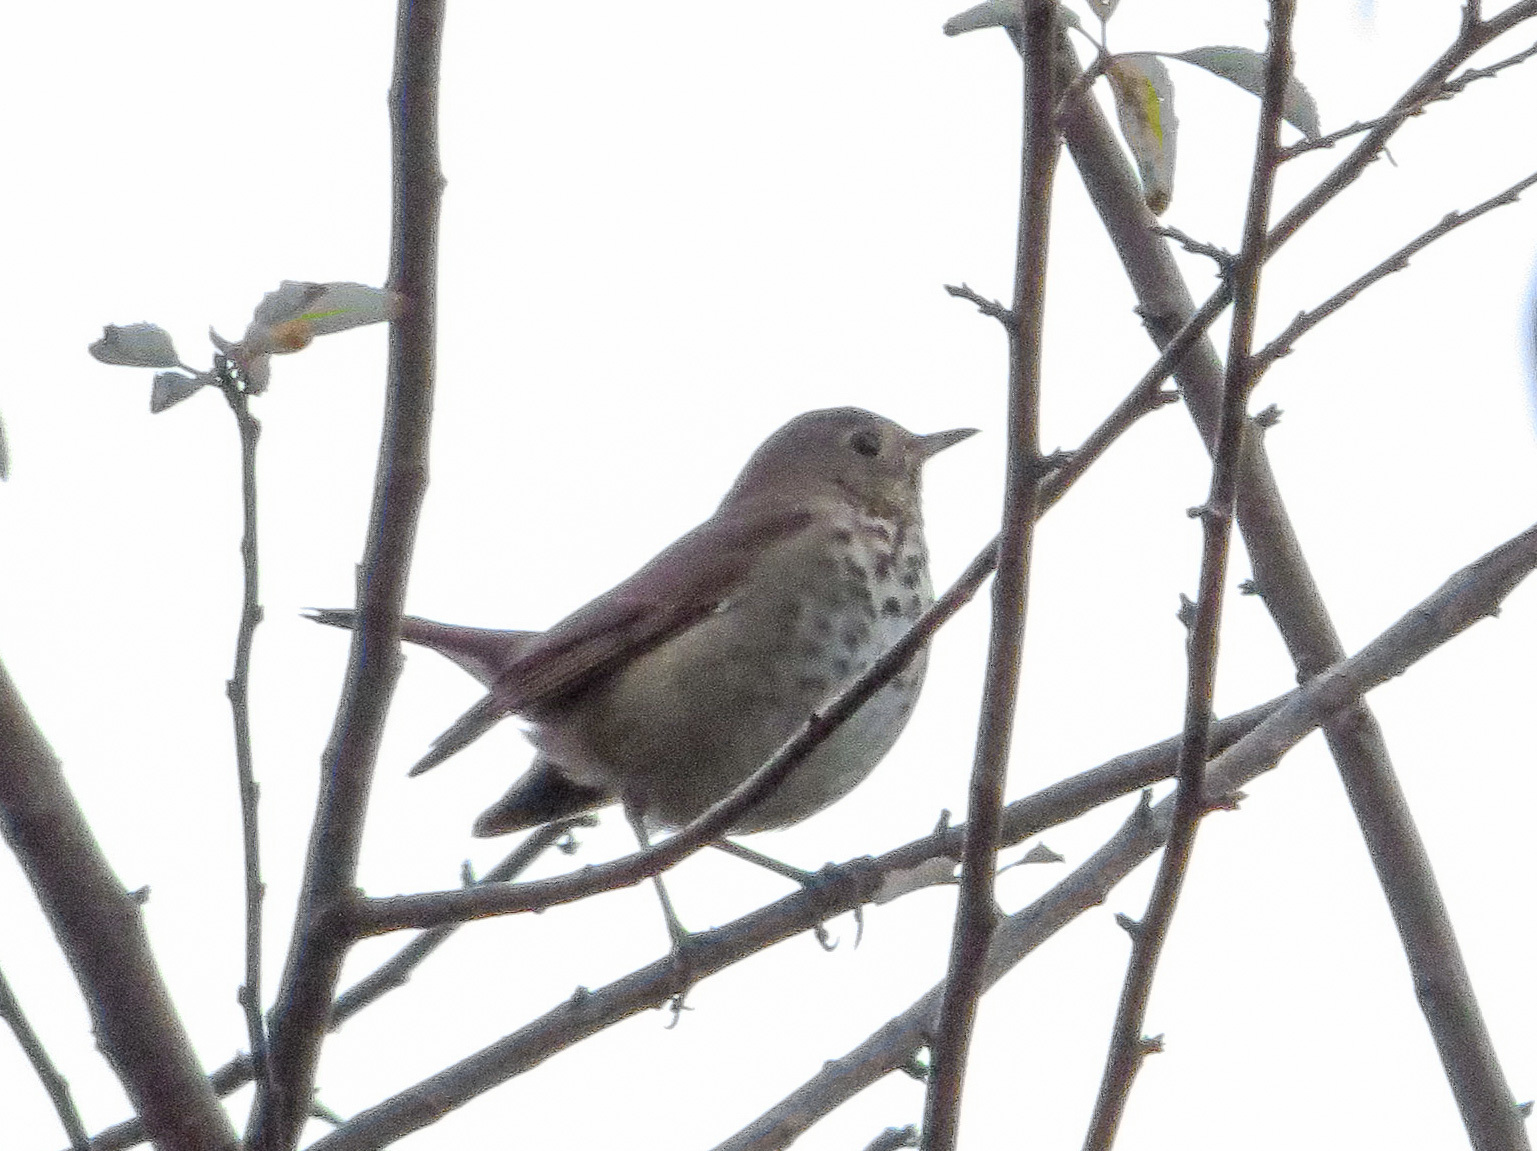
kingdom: Animalia
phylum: Chordata
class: Aves
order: Passeriformes
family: Turdidae
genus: Catharus
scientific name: Catharus guttatus
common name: Hermit thrush
